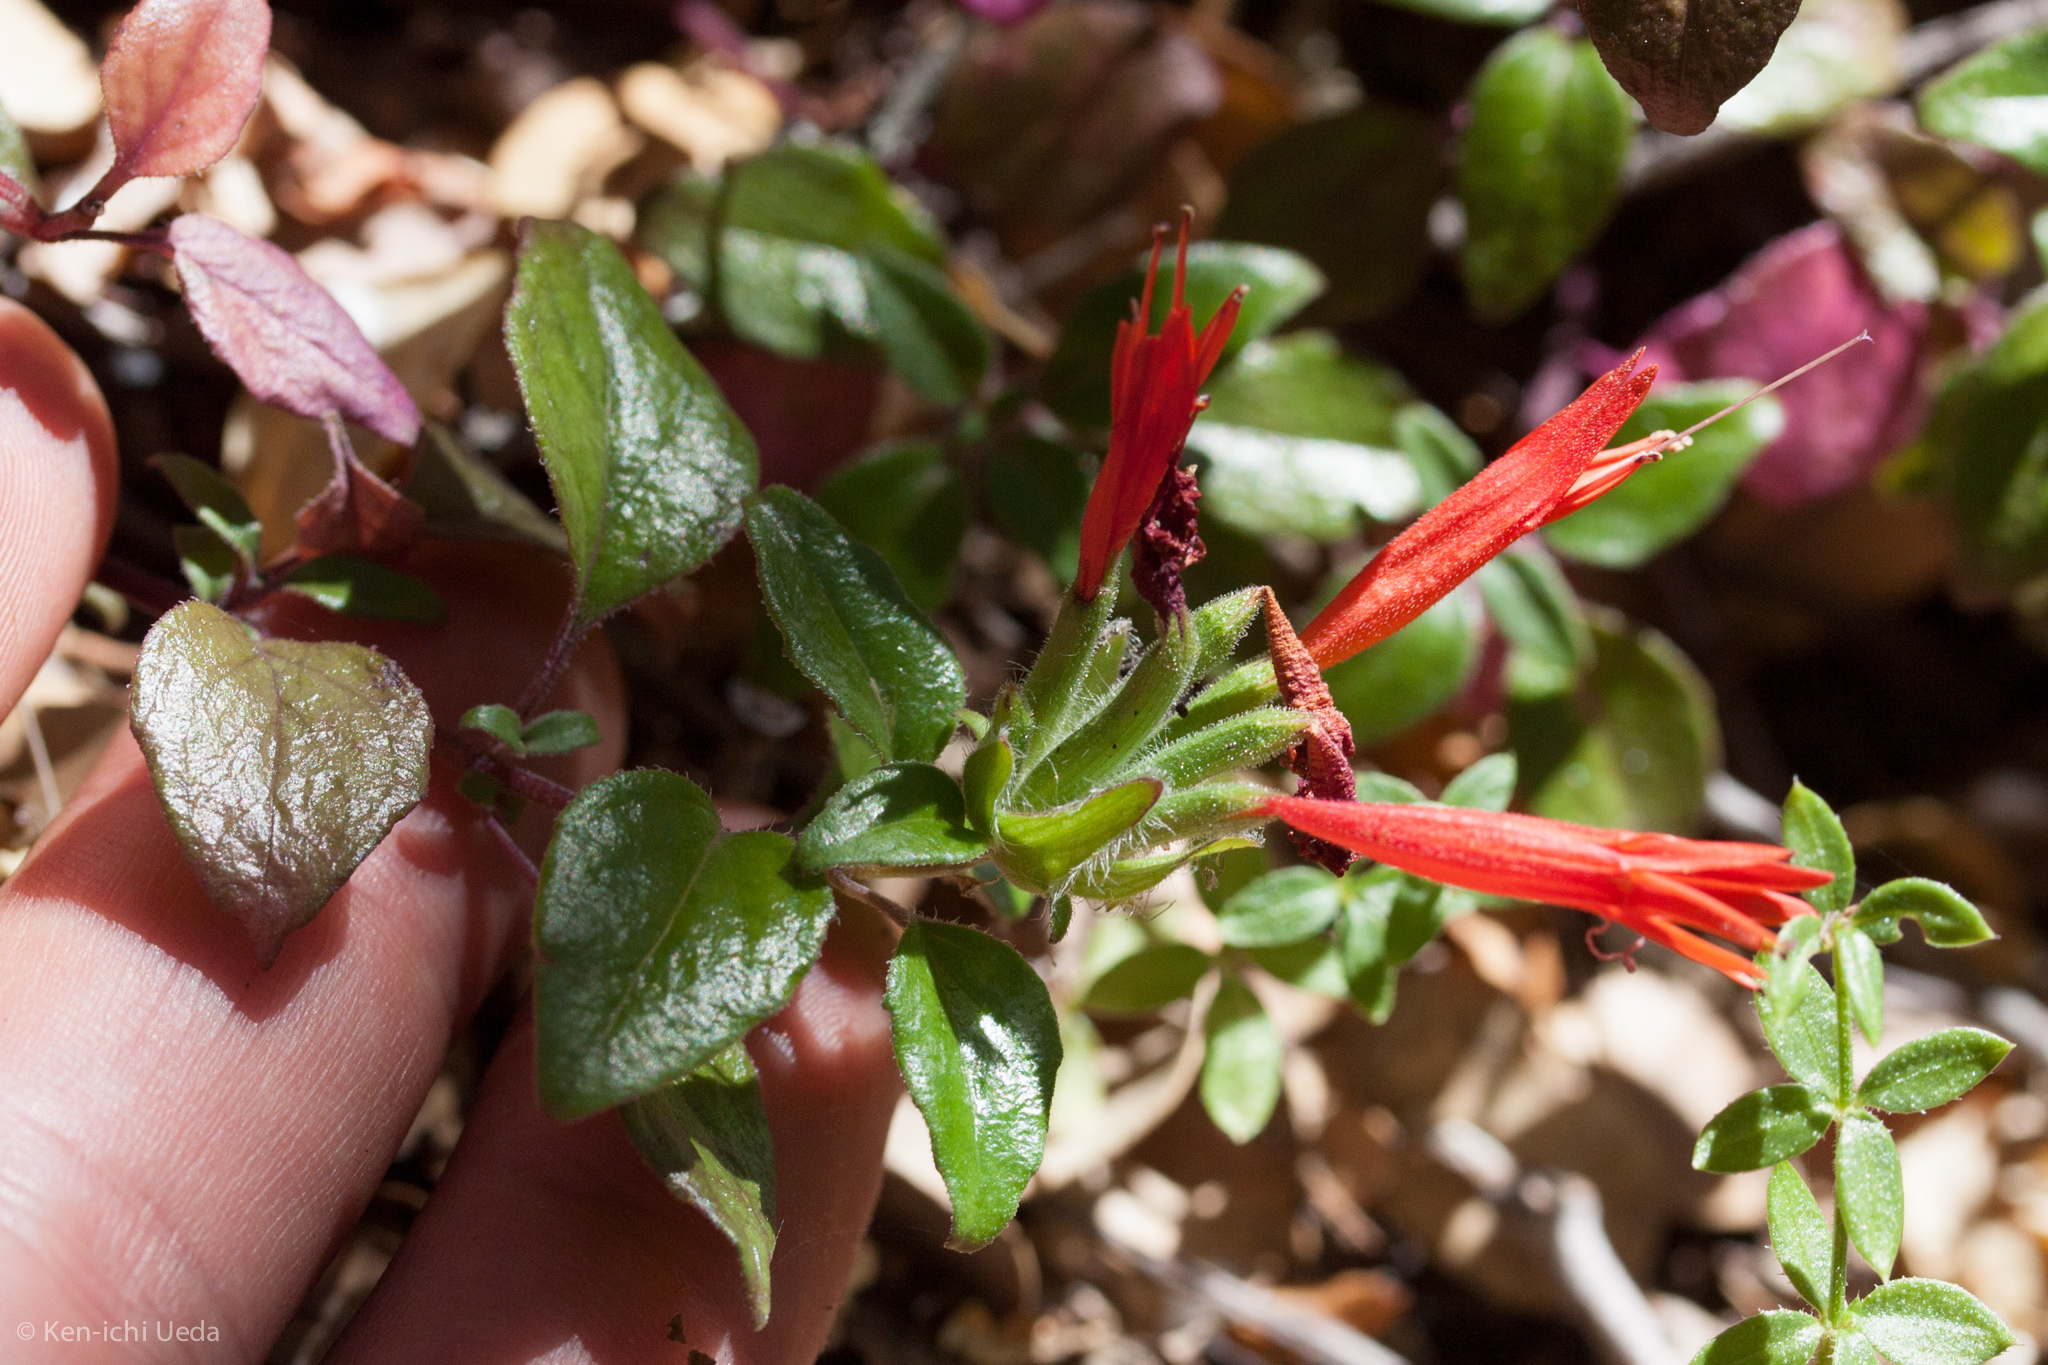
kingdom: Plantae
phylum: Tracheophyta
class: Magnoliopsida
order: Lamiales
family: Lamiaceae
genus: Monardella
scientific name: Monardella macrantha
